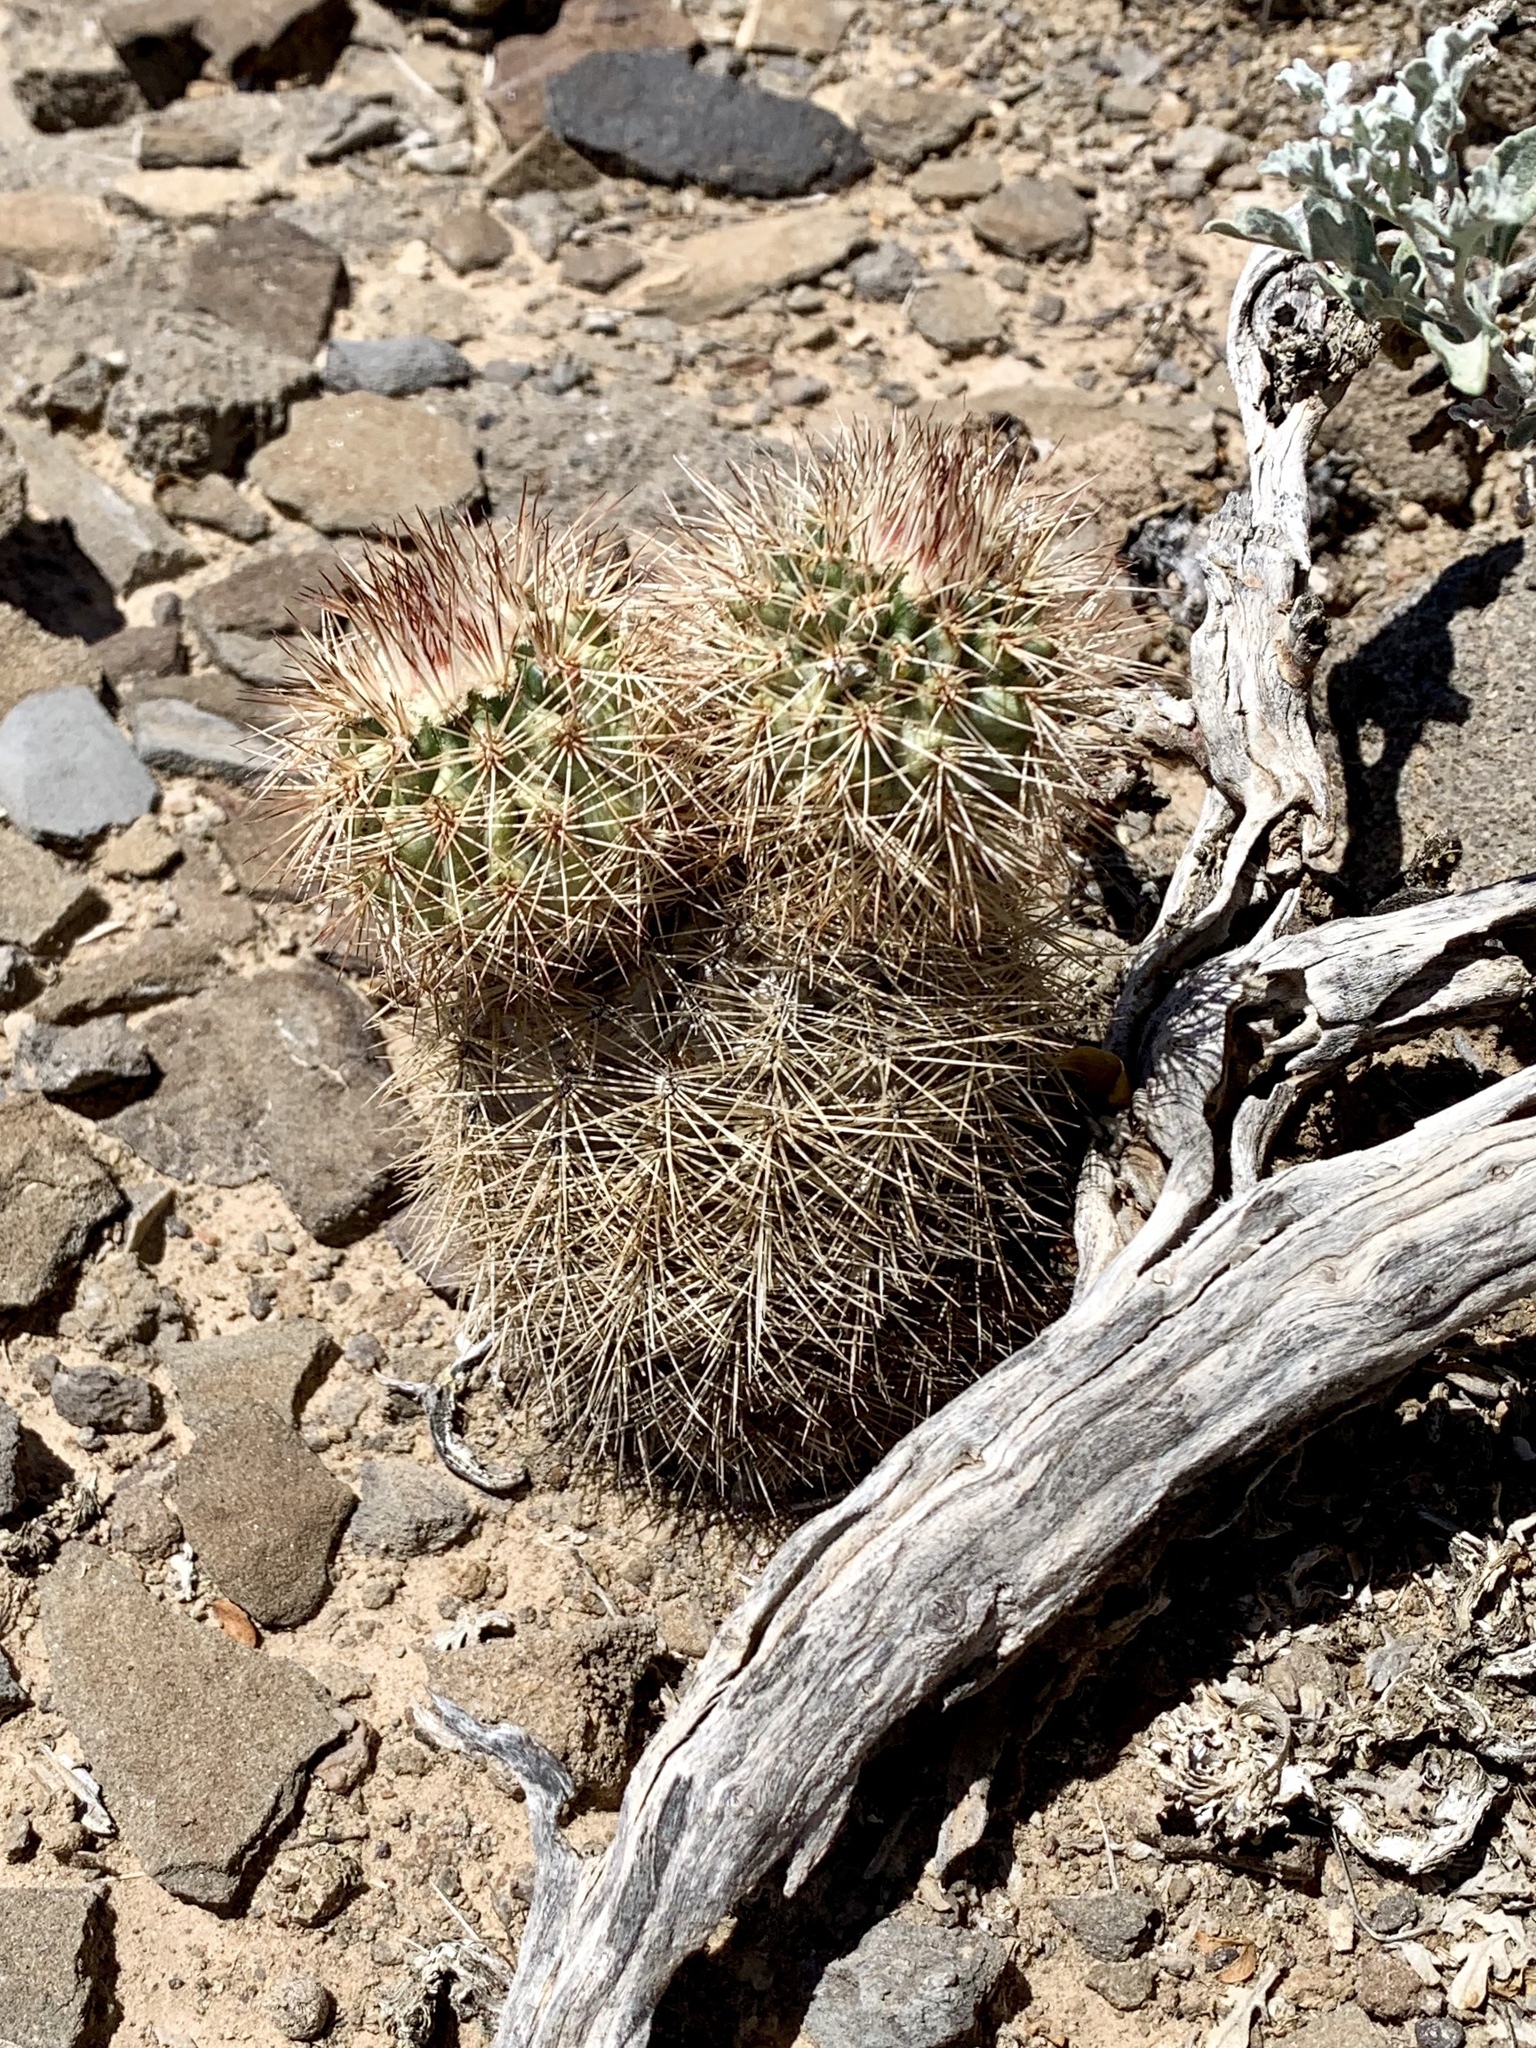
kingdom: Plantae
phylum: Tracheophyta
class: Magnoliopsida
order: Caryophyllales
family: Cactaceae
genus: Echinocereus
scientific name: Echinocereus dasyacanthus
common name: Spiny hedgehog cactus
